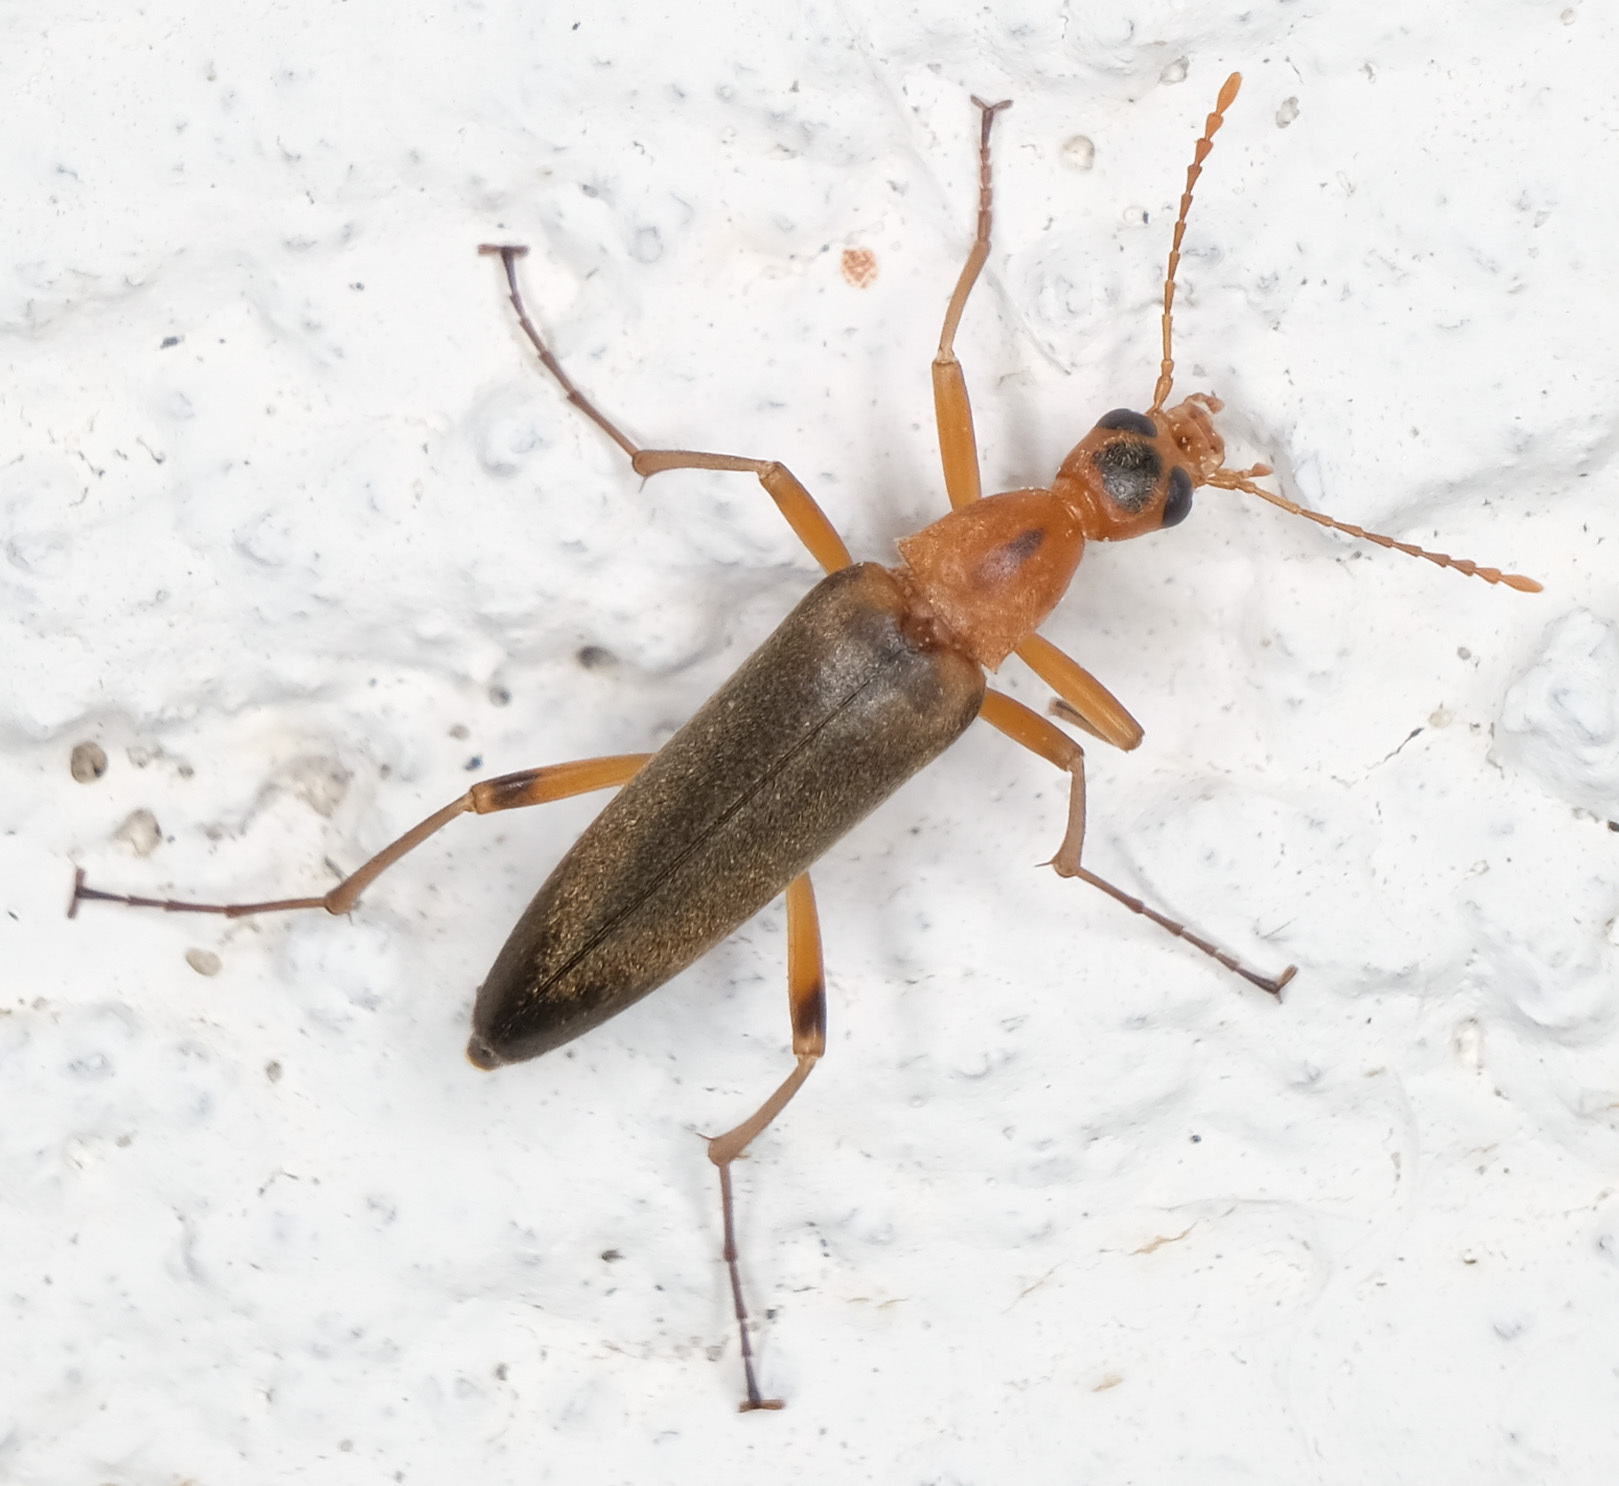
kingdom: Animalia
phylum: Arthropoda
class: Insecta
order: Coleoptera
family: Stenotrachelidae
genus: Cephaloon
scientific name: Cephaloon lepturides
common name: False leptura beetle
